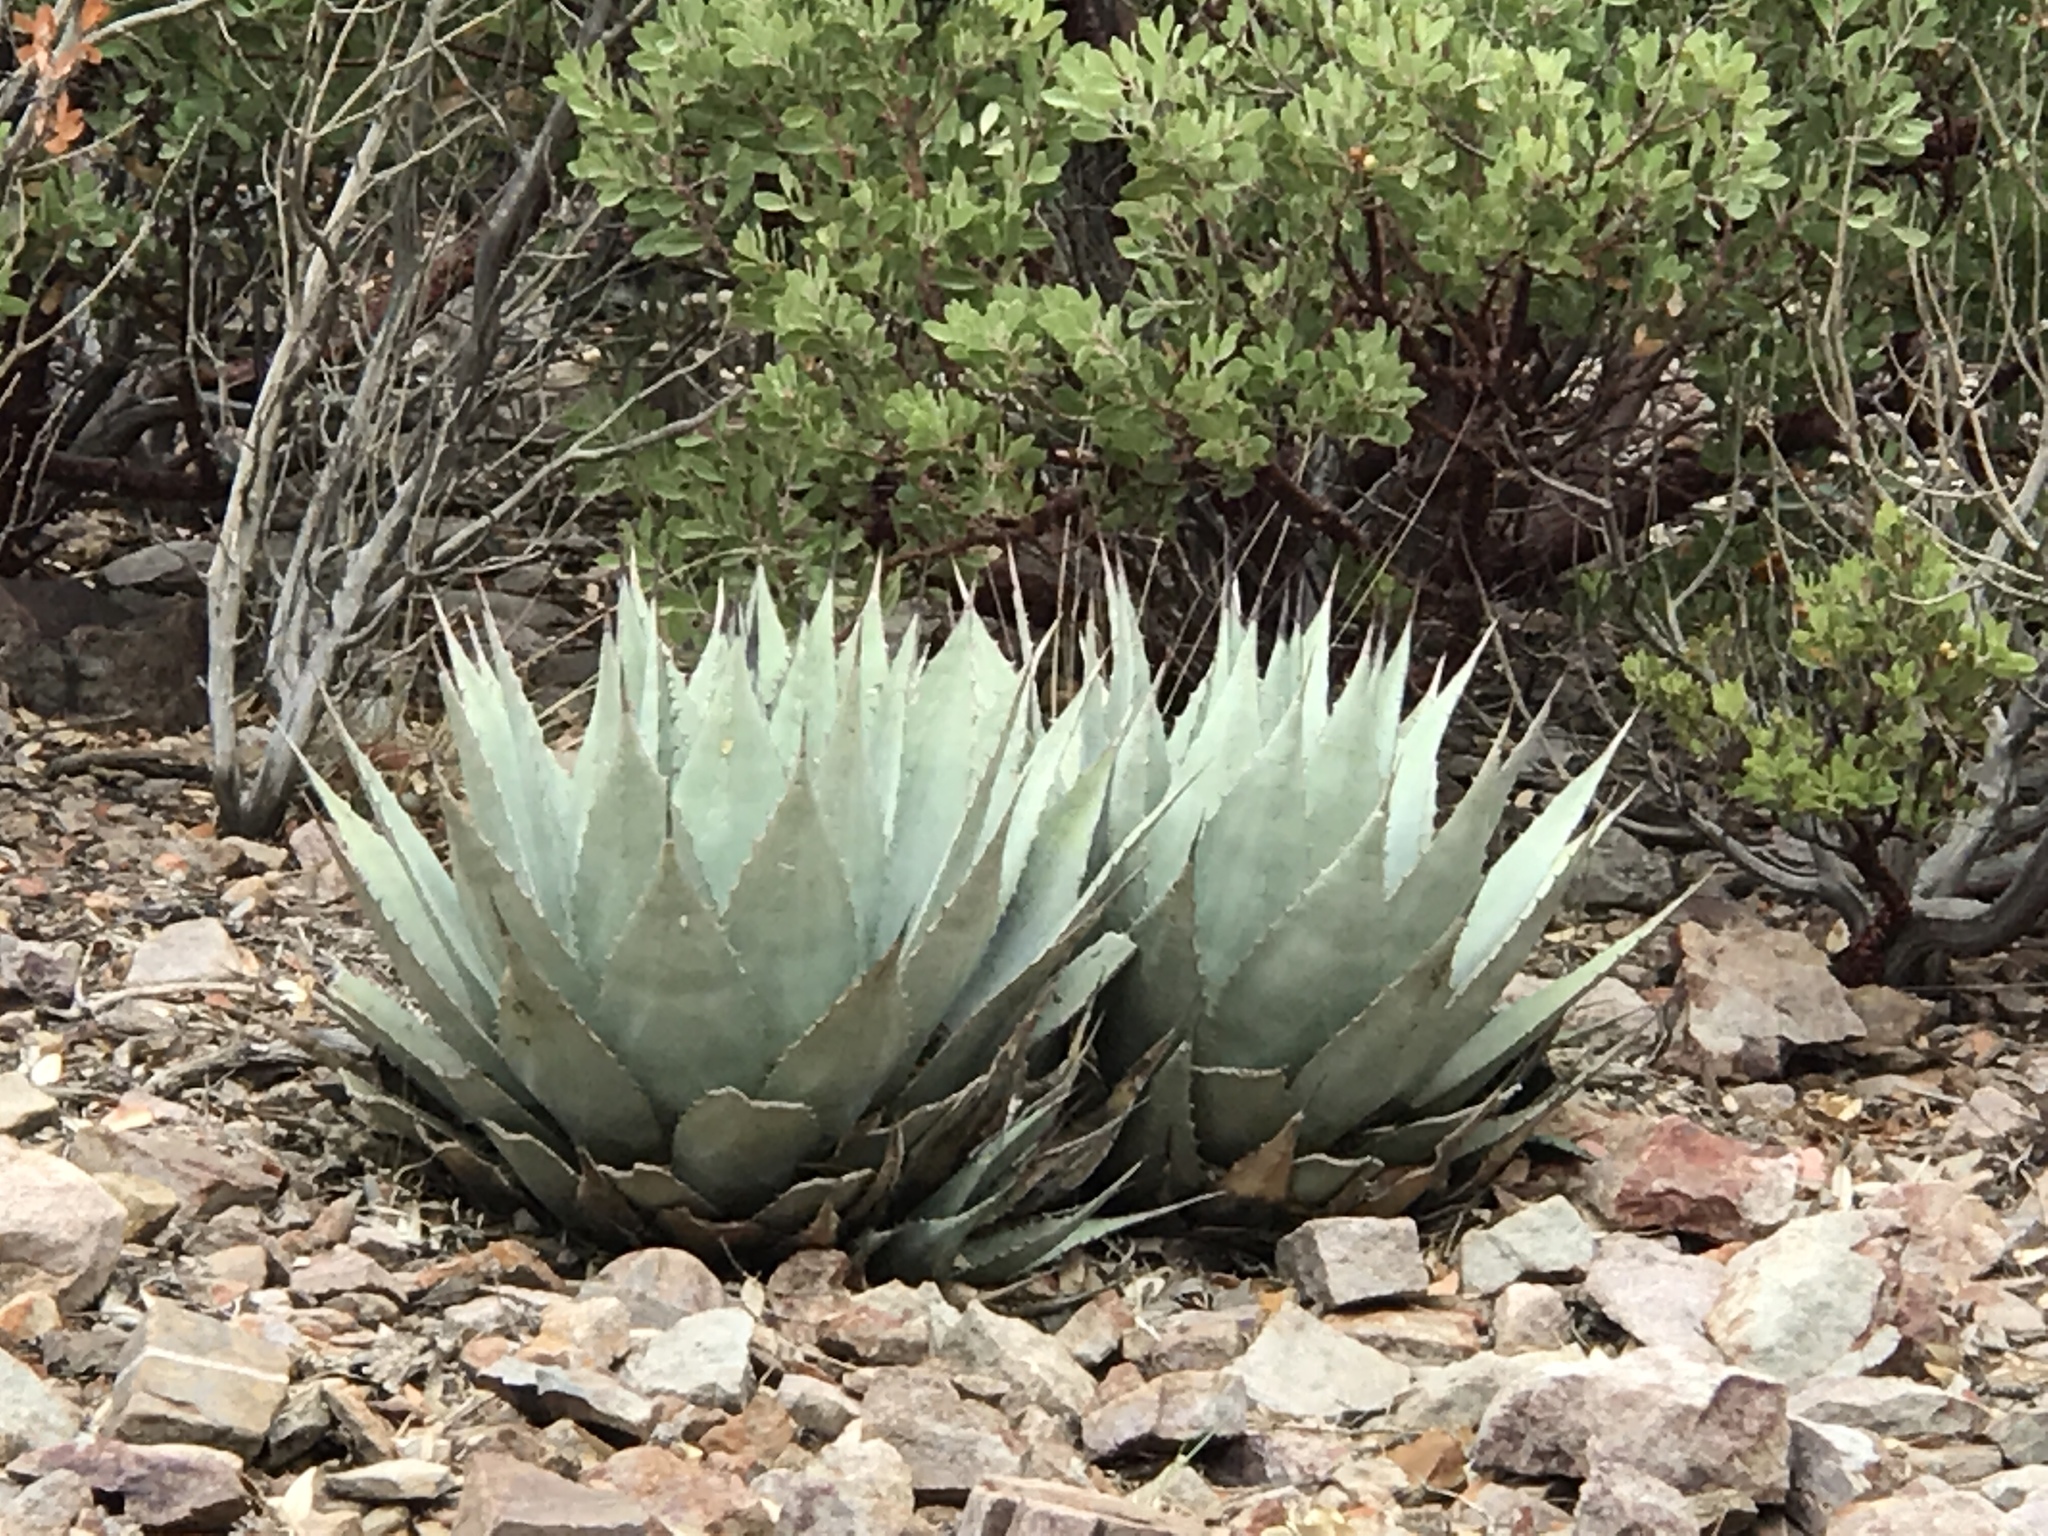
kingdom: Plantae
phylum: Tracheophyta
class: Liliopsida
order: Asparagales
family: Asparagaceae
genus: Agave
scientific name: Agave parryi
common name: Parry's agave
